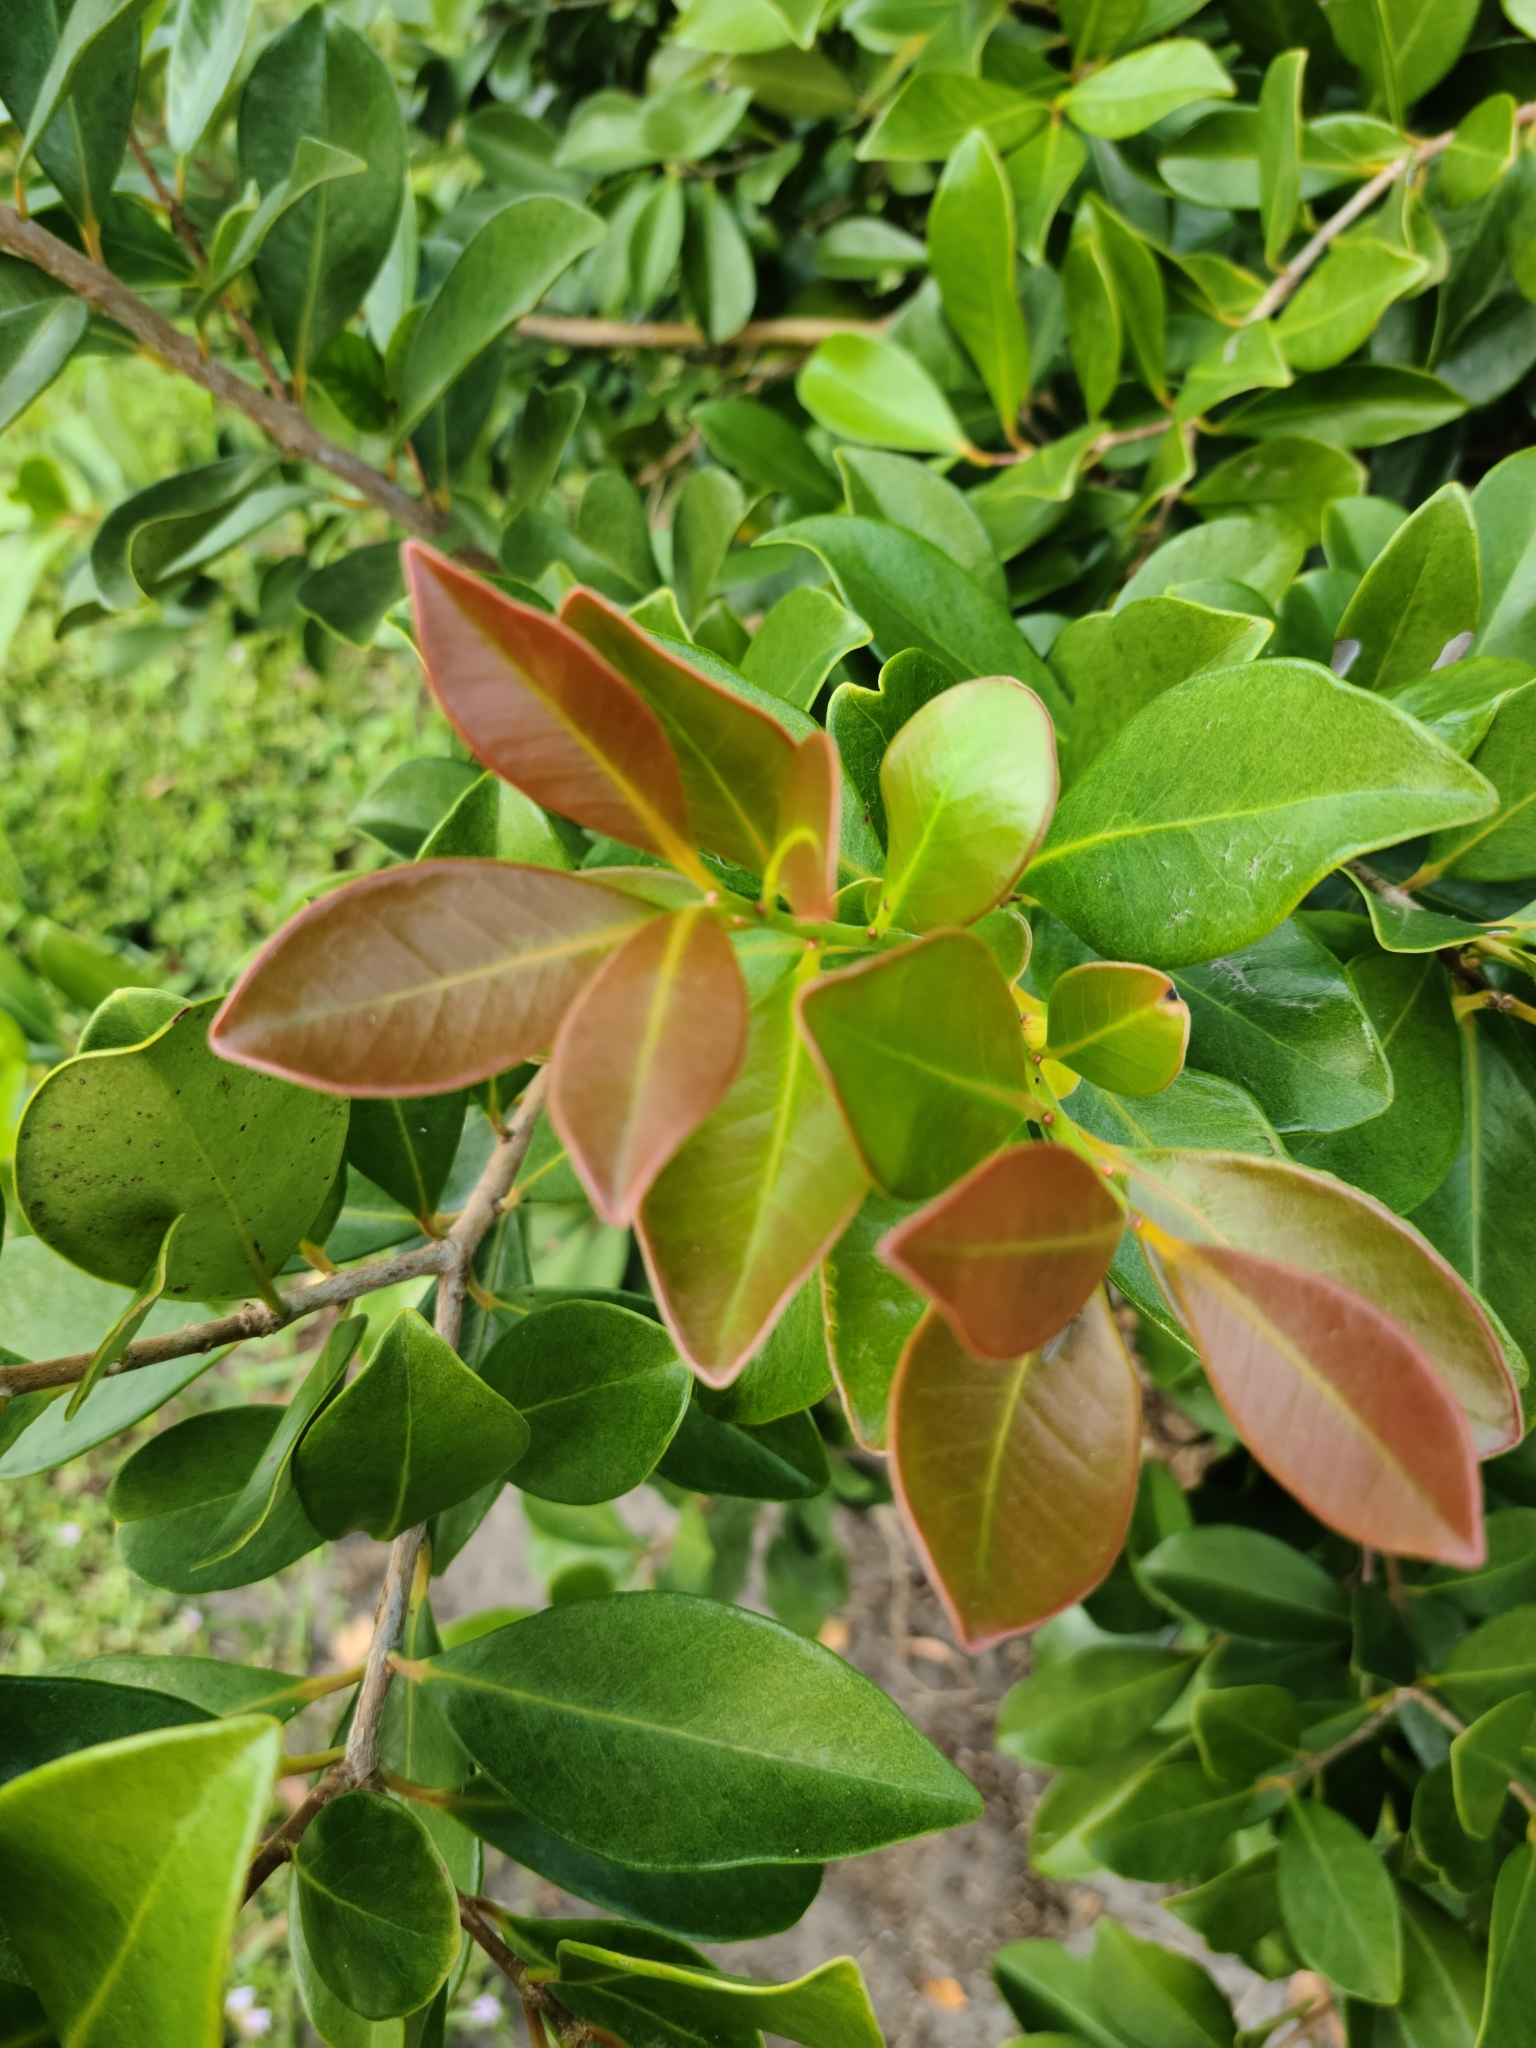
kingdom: Plantae
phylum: Tracheophyta
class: Magnoliopsida
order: Myrtales
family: Myrtaceae
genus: Psidium
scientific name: Psidium cattleianum
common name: Strawberry guava
